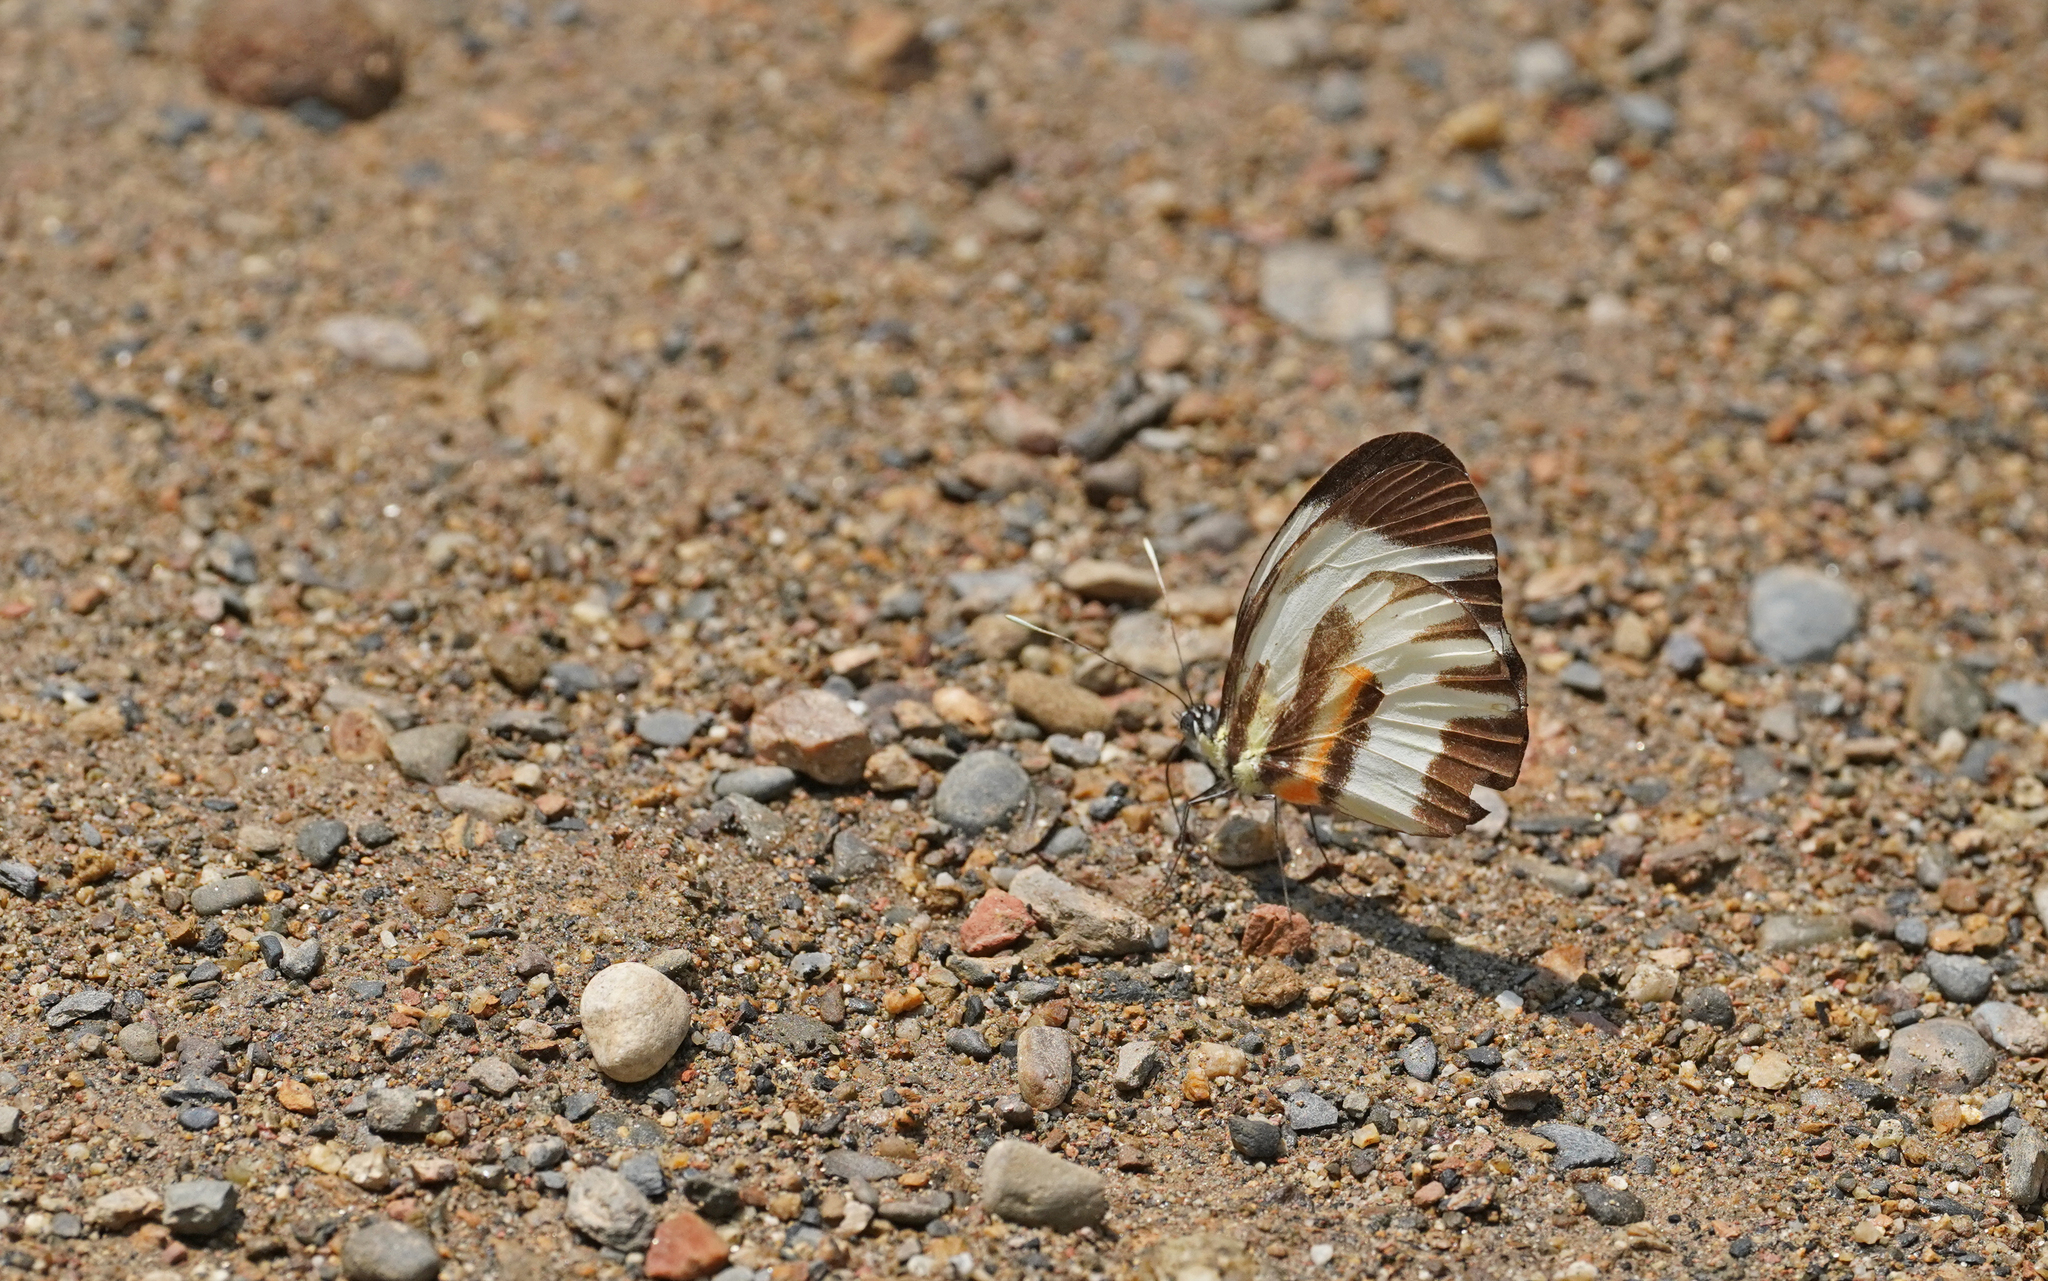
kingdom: Animalia
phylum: Arthropoda
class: Insecta
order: Lepidoptera
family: Pieridae
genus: Perrhybris
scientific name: Perrhybris pamela
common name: Chiapas white
